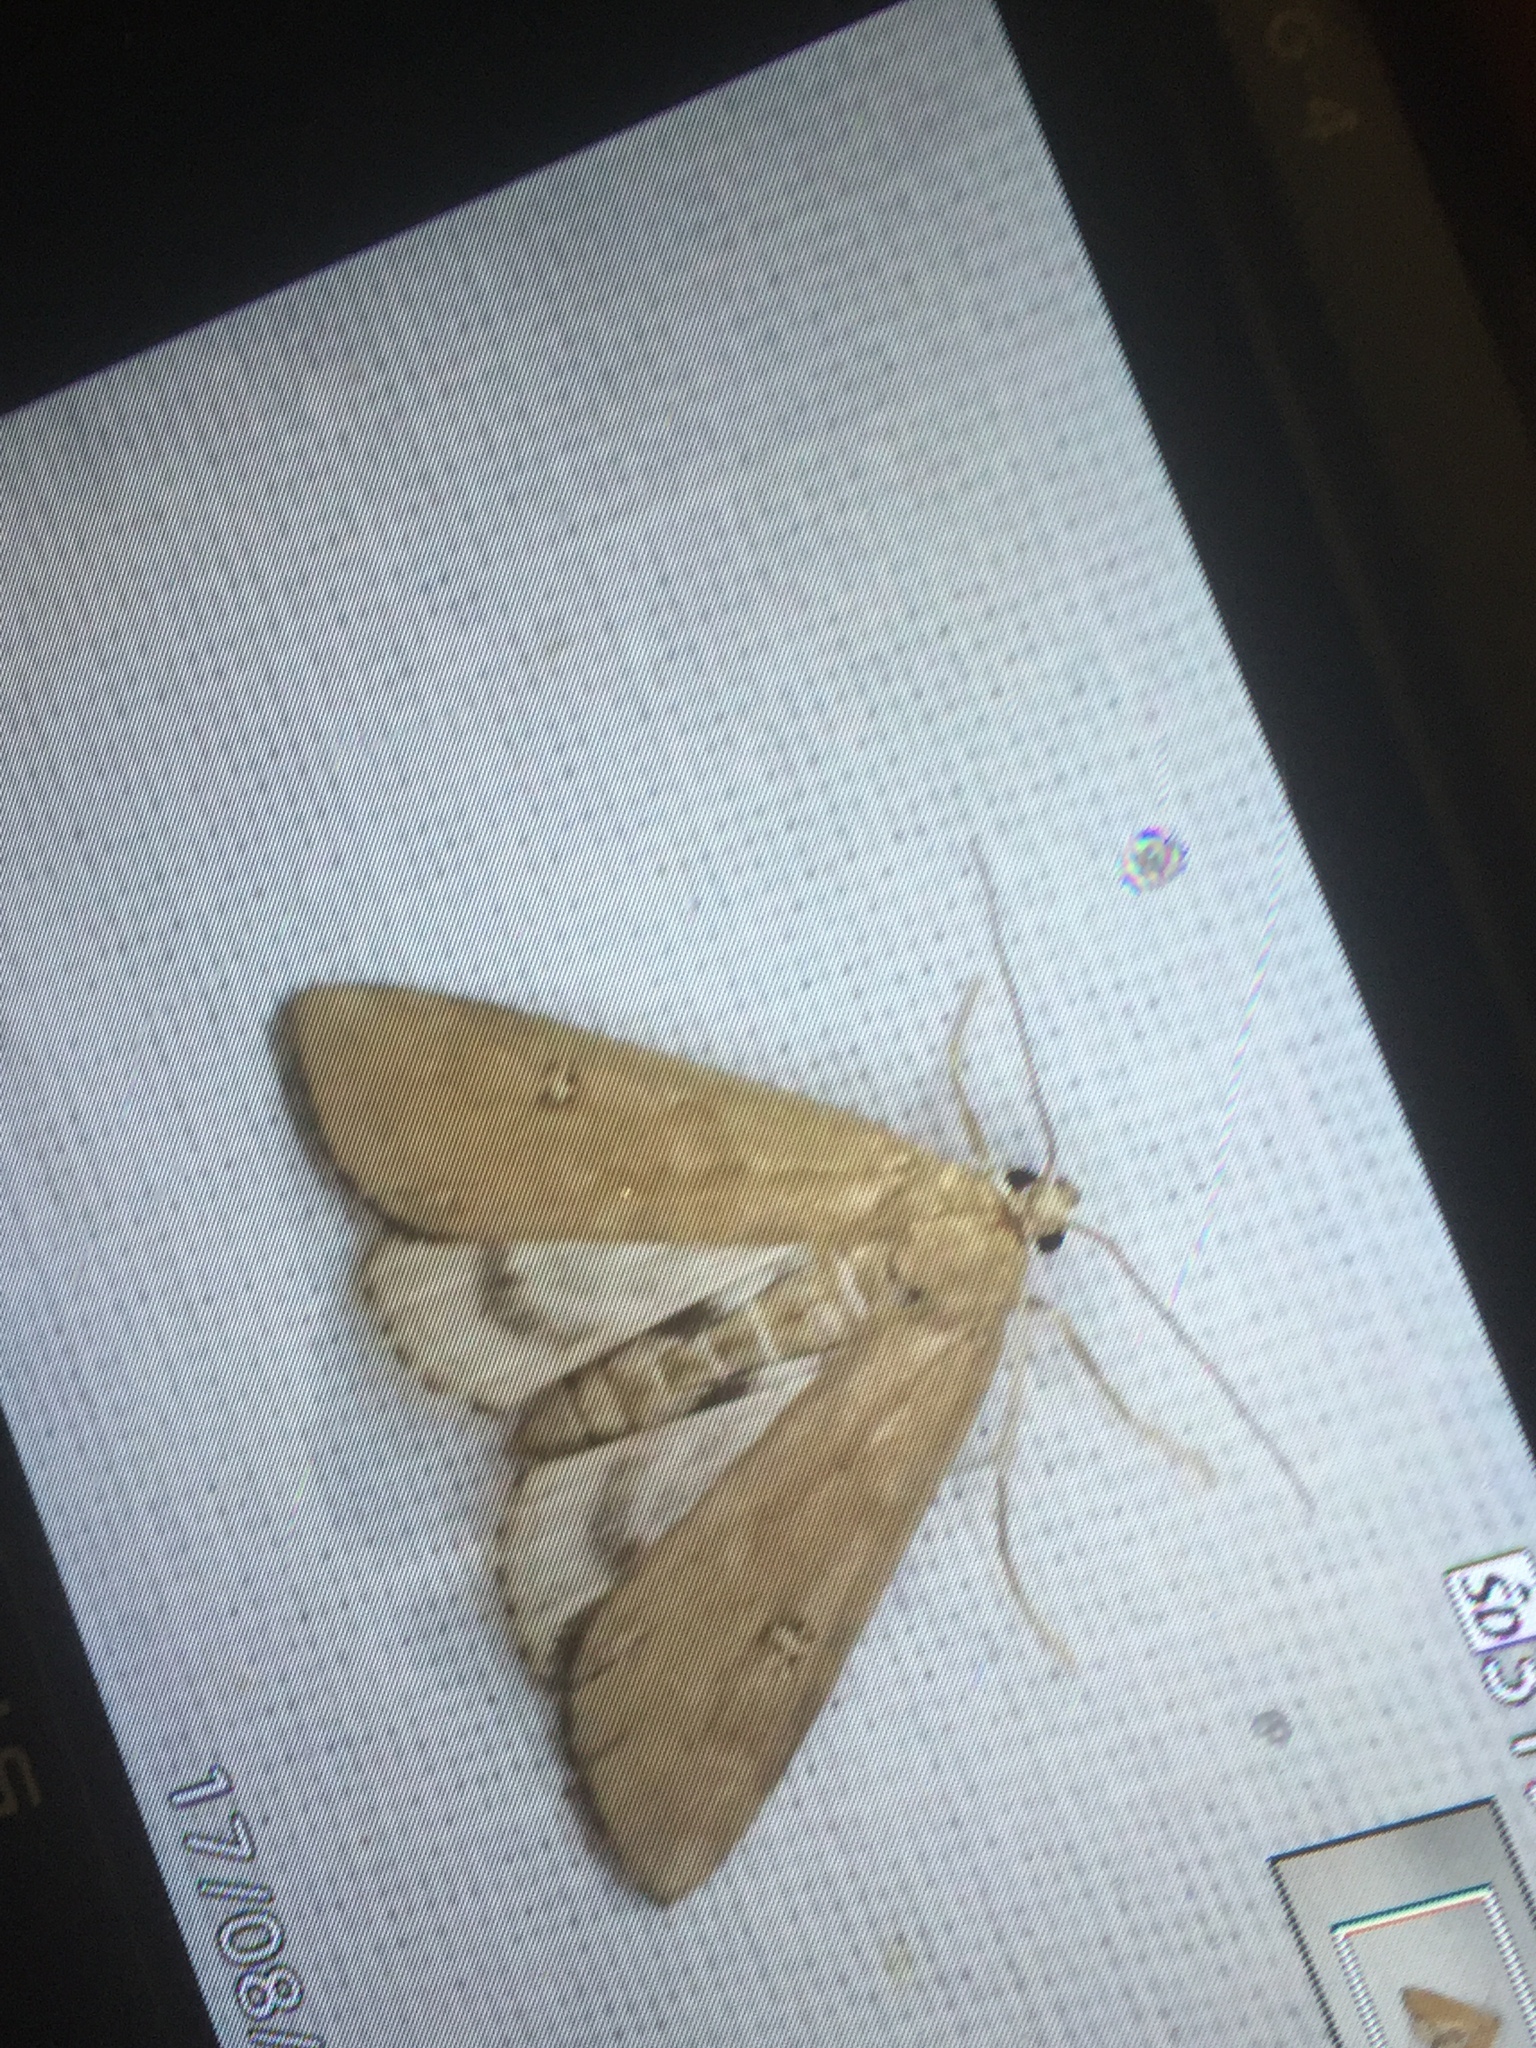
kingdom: Animalia
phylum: Arthropoda
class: Insecta
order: Lepidoptera
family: Crambidae
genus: Parapoynx
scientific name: Parapoynx stratiotata
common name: Ringed china-mark
